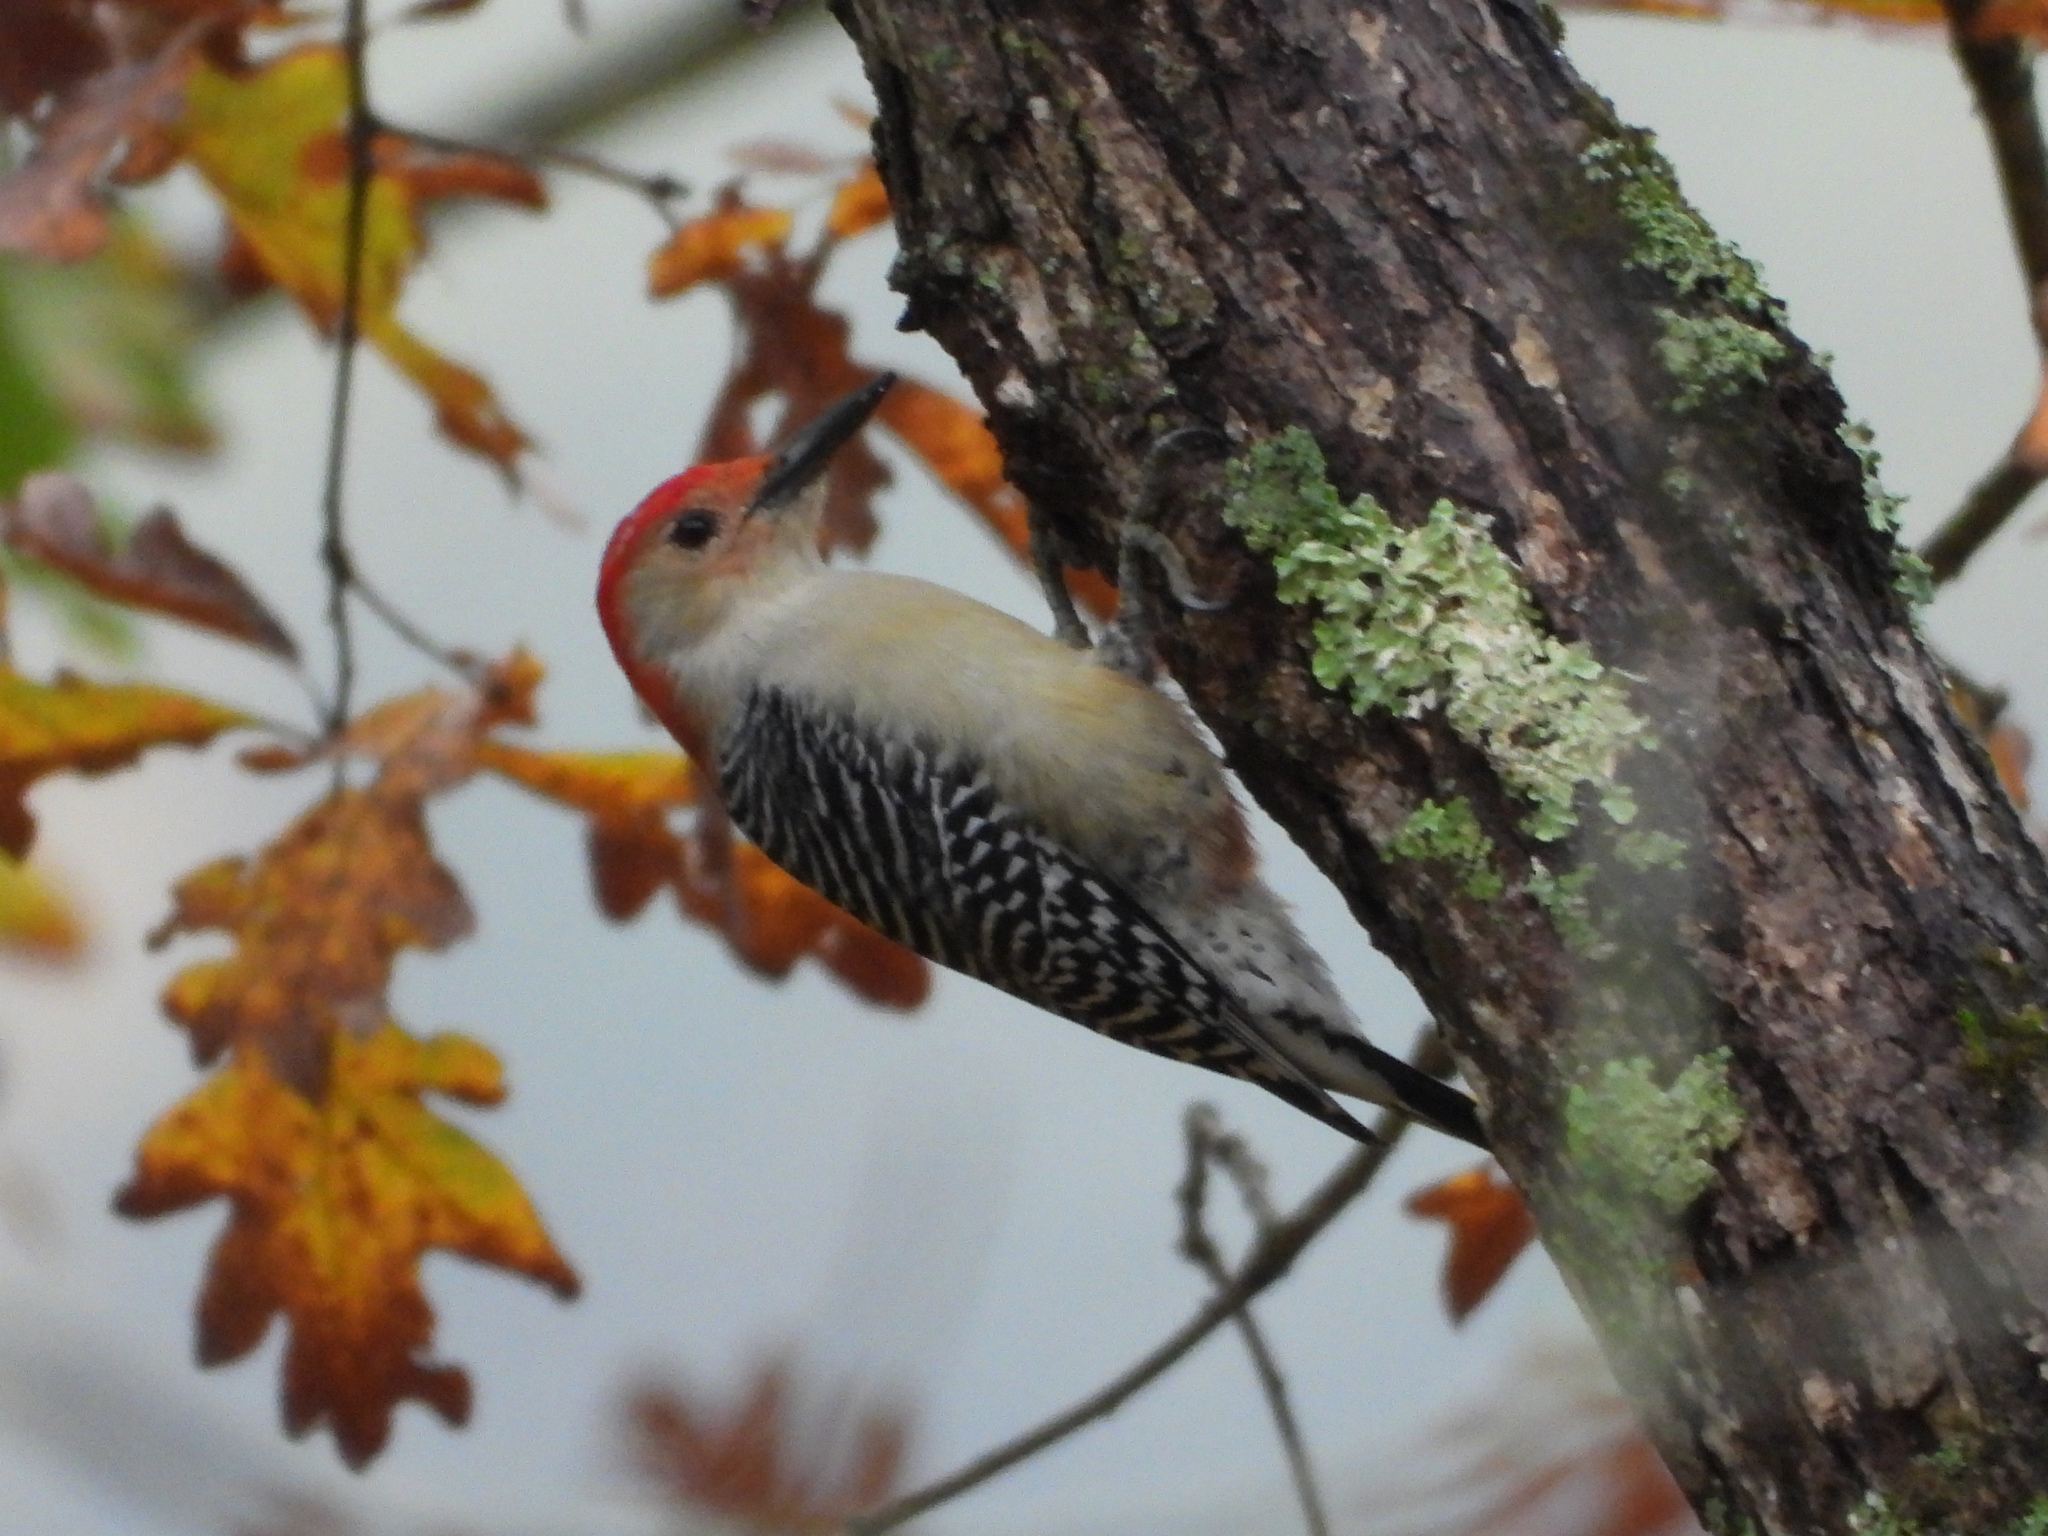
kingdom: Animalia
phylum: Chordata
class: Aves
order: Piciformes
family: Picidae
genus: Melanerpes
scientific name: Melanerpes carolinus
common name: Red-bellied woodpecker
